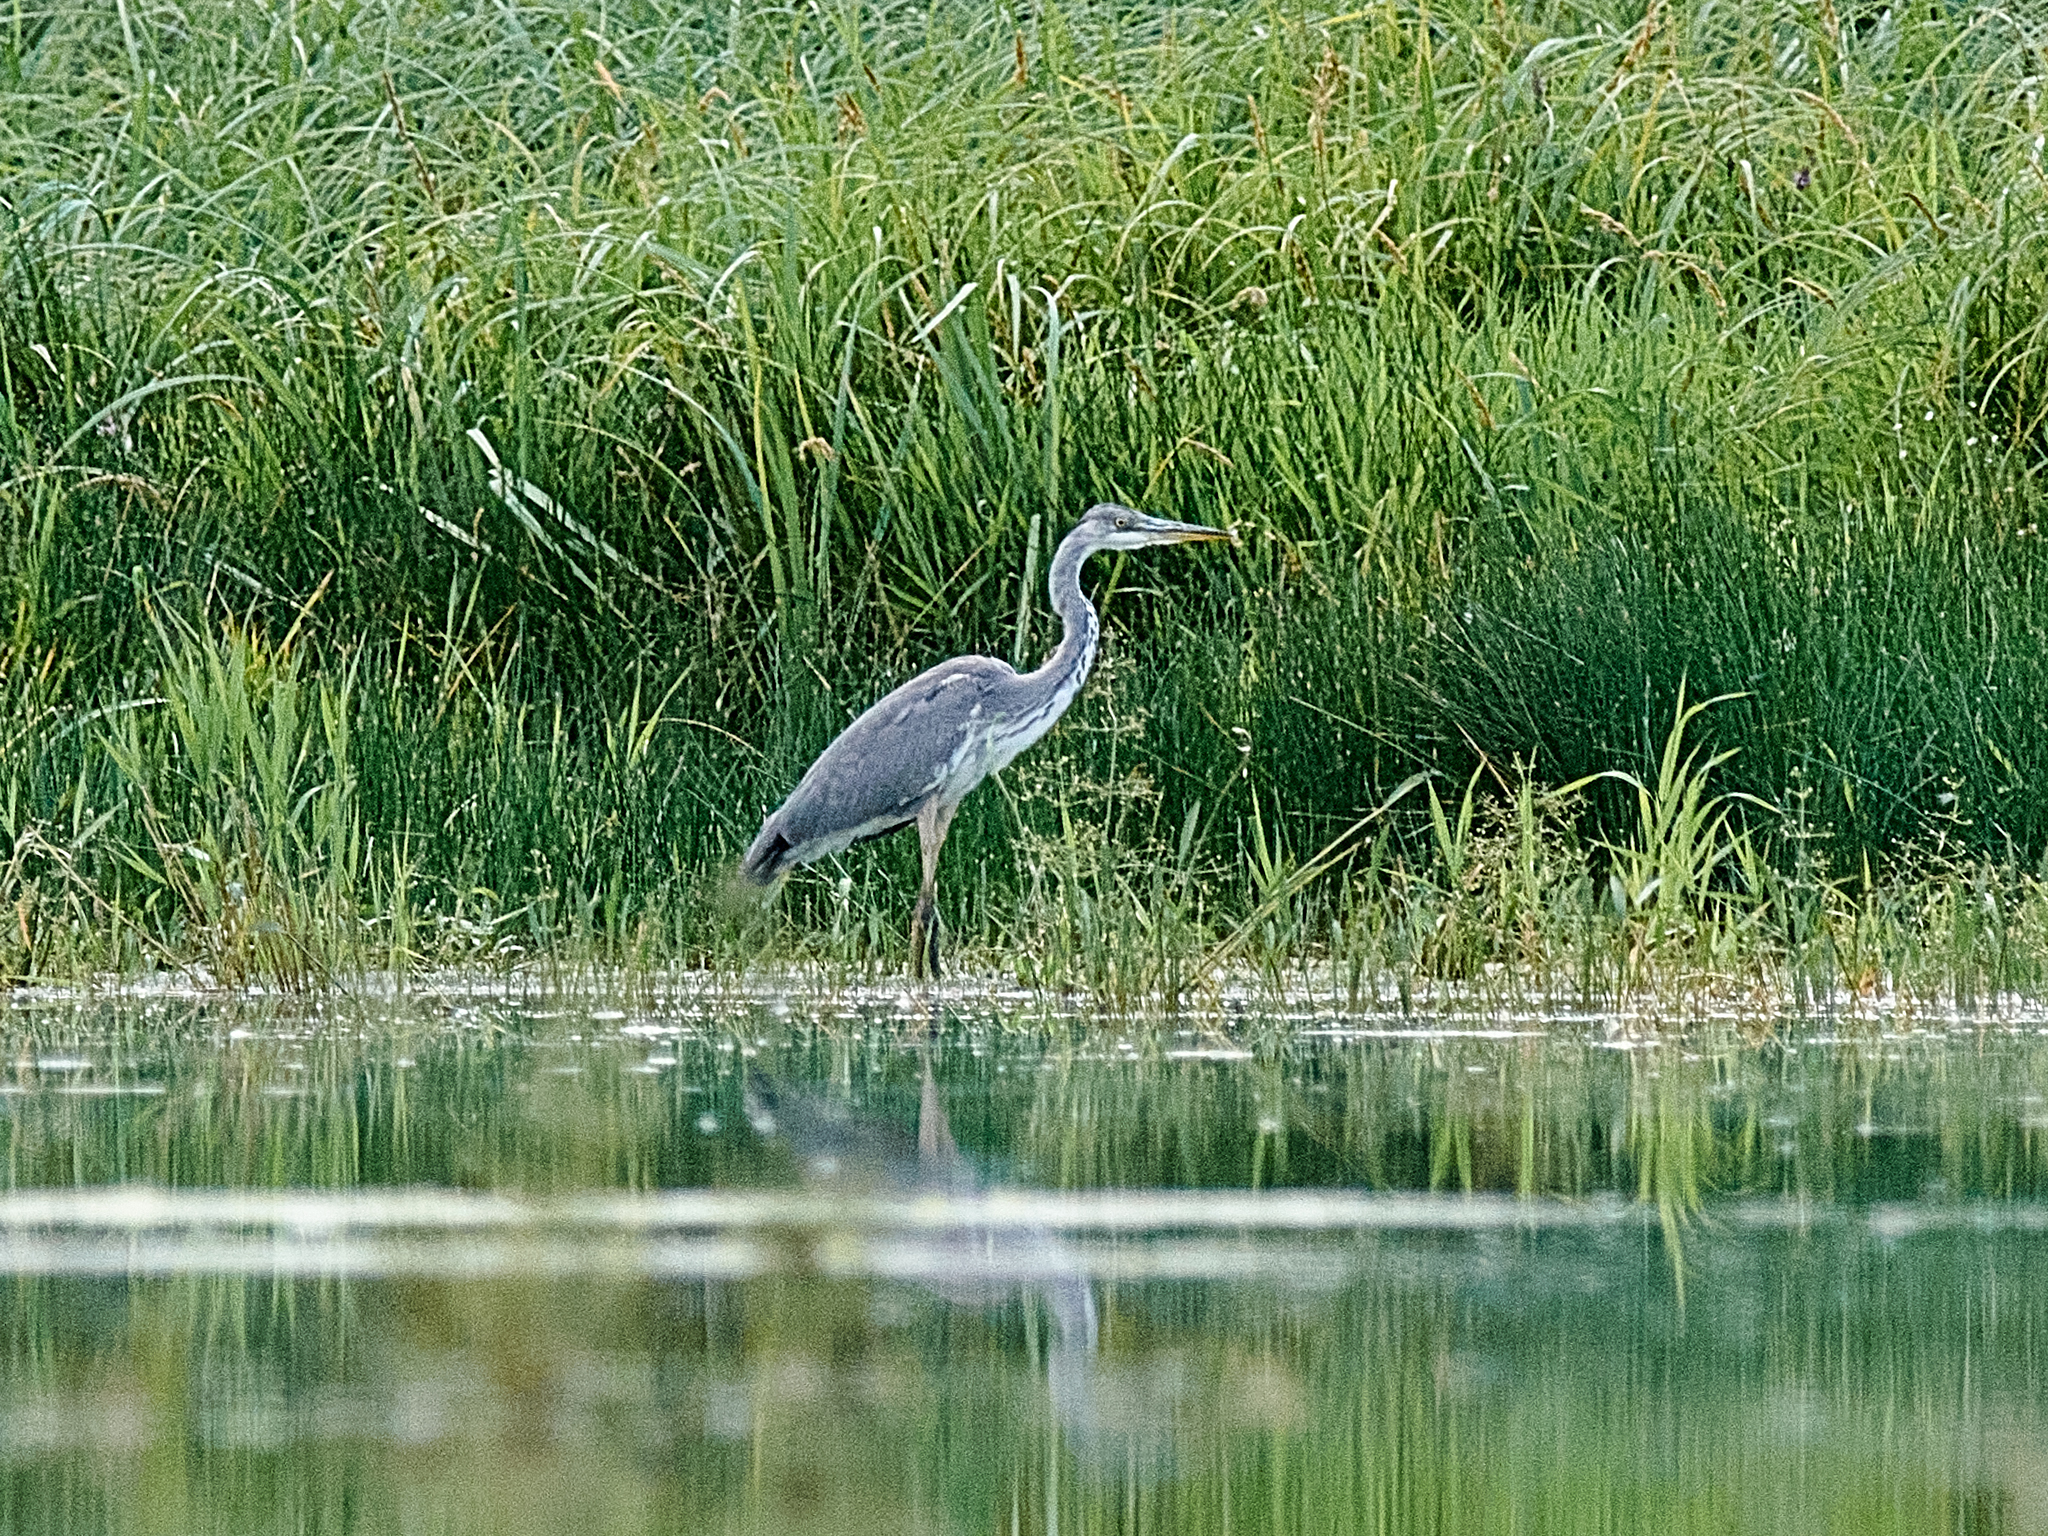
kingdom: Animalia
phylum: Chordata
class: Aves
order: Pelecaniformes
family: Ardeidae
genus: Ardea
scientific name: Ardea cinerea
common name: Grey heron
